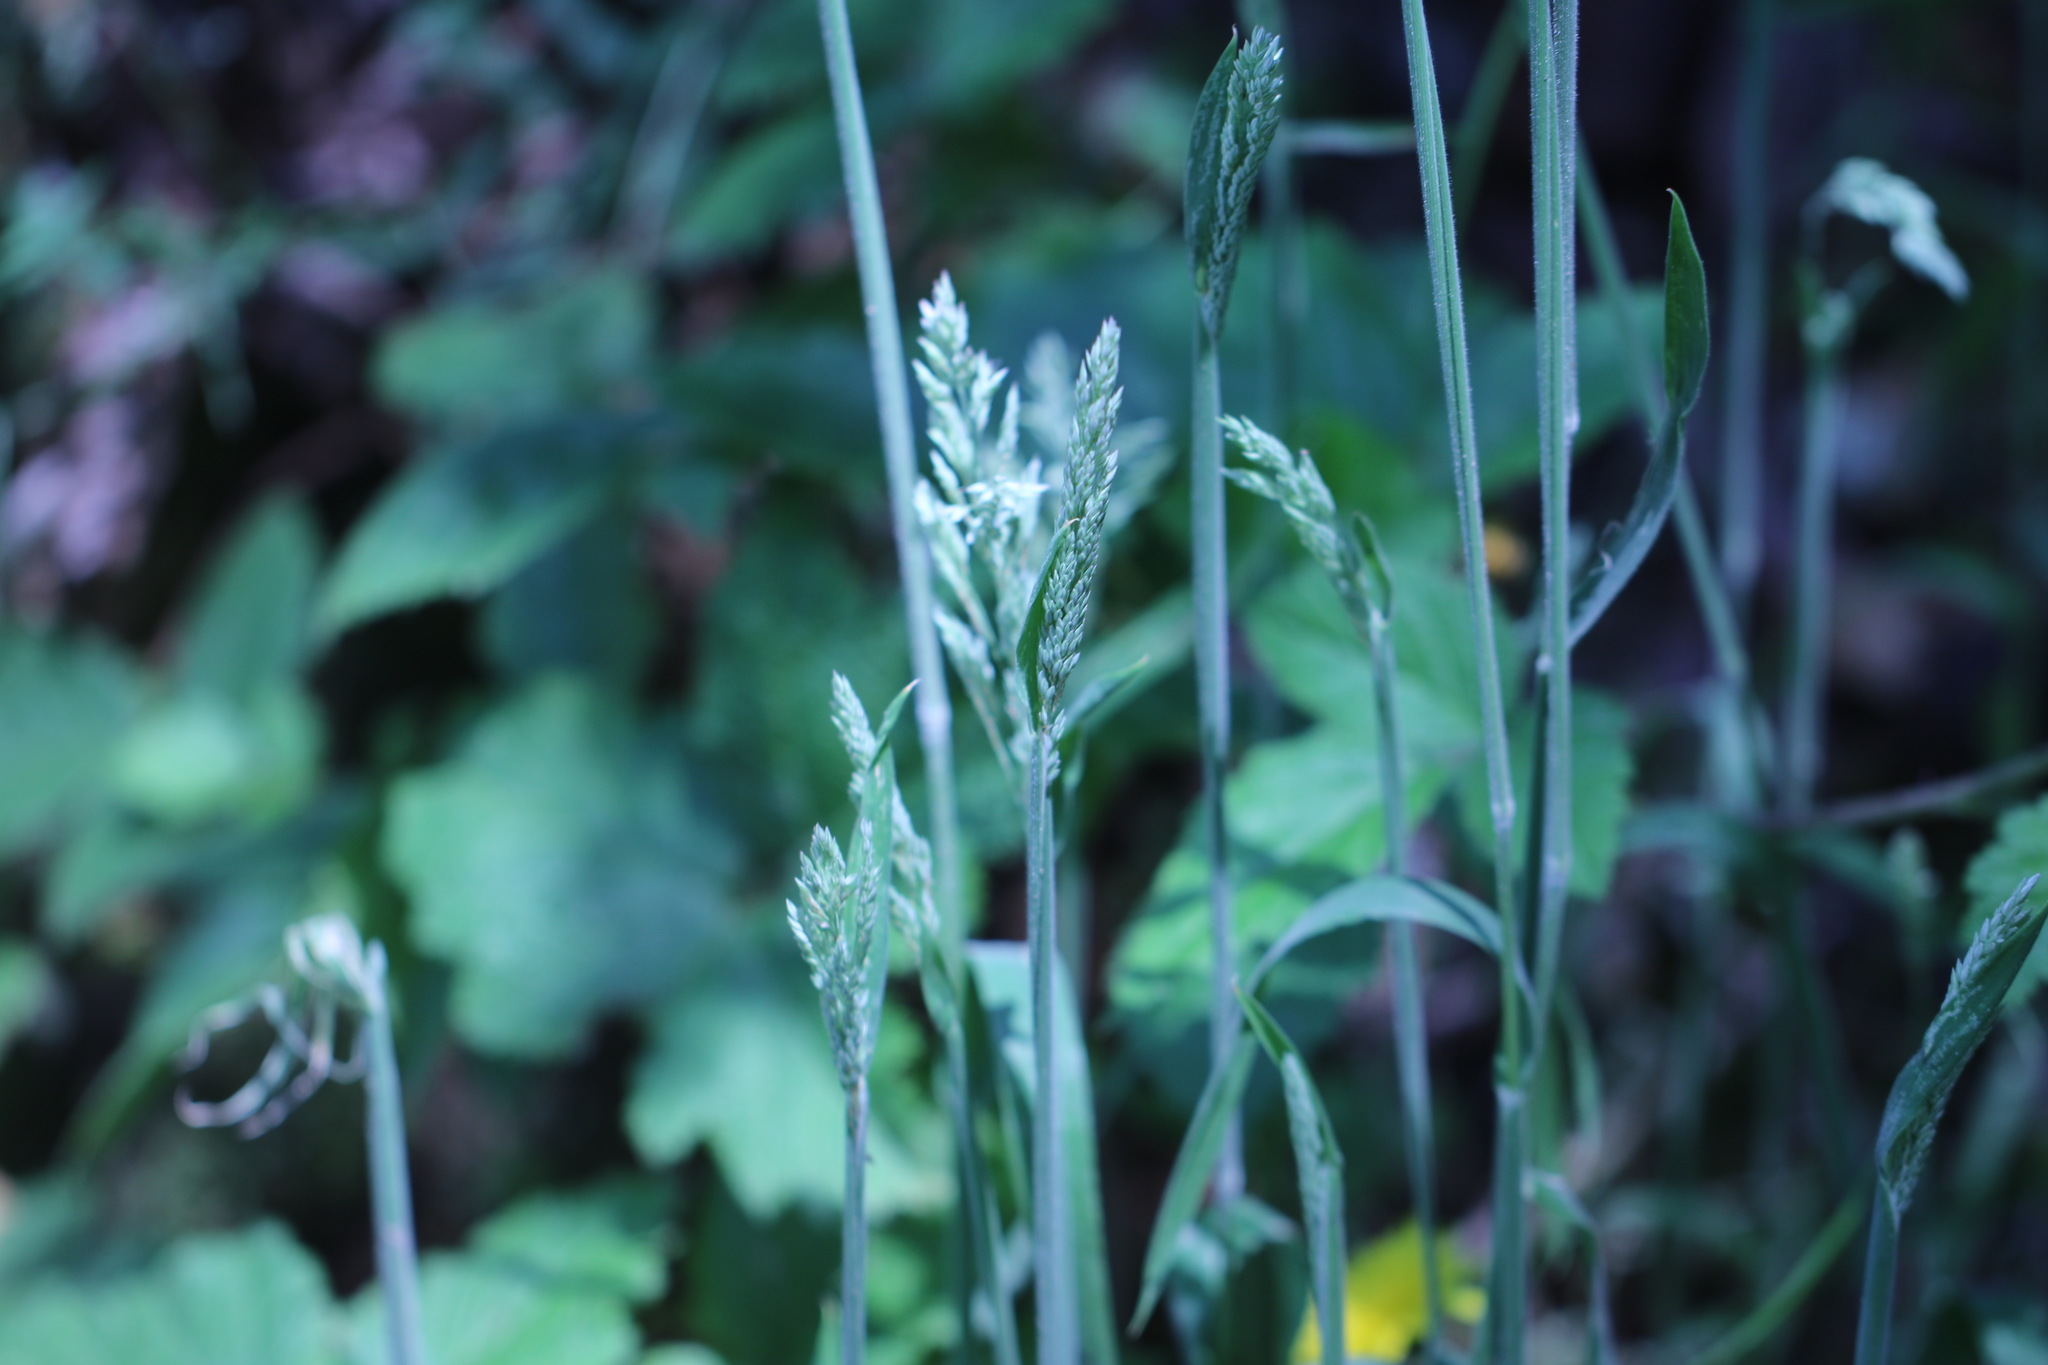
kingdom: Plantae
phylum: Tracheophyta
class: Liliopsida
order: Poales
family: Poaceae
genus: Holcus
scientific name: Holcus lanatus
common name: Yorkshire-fog
